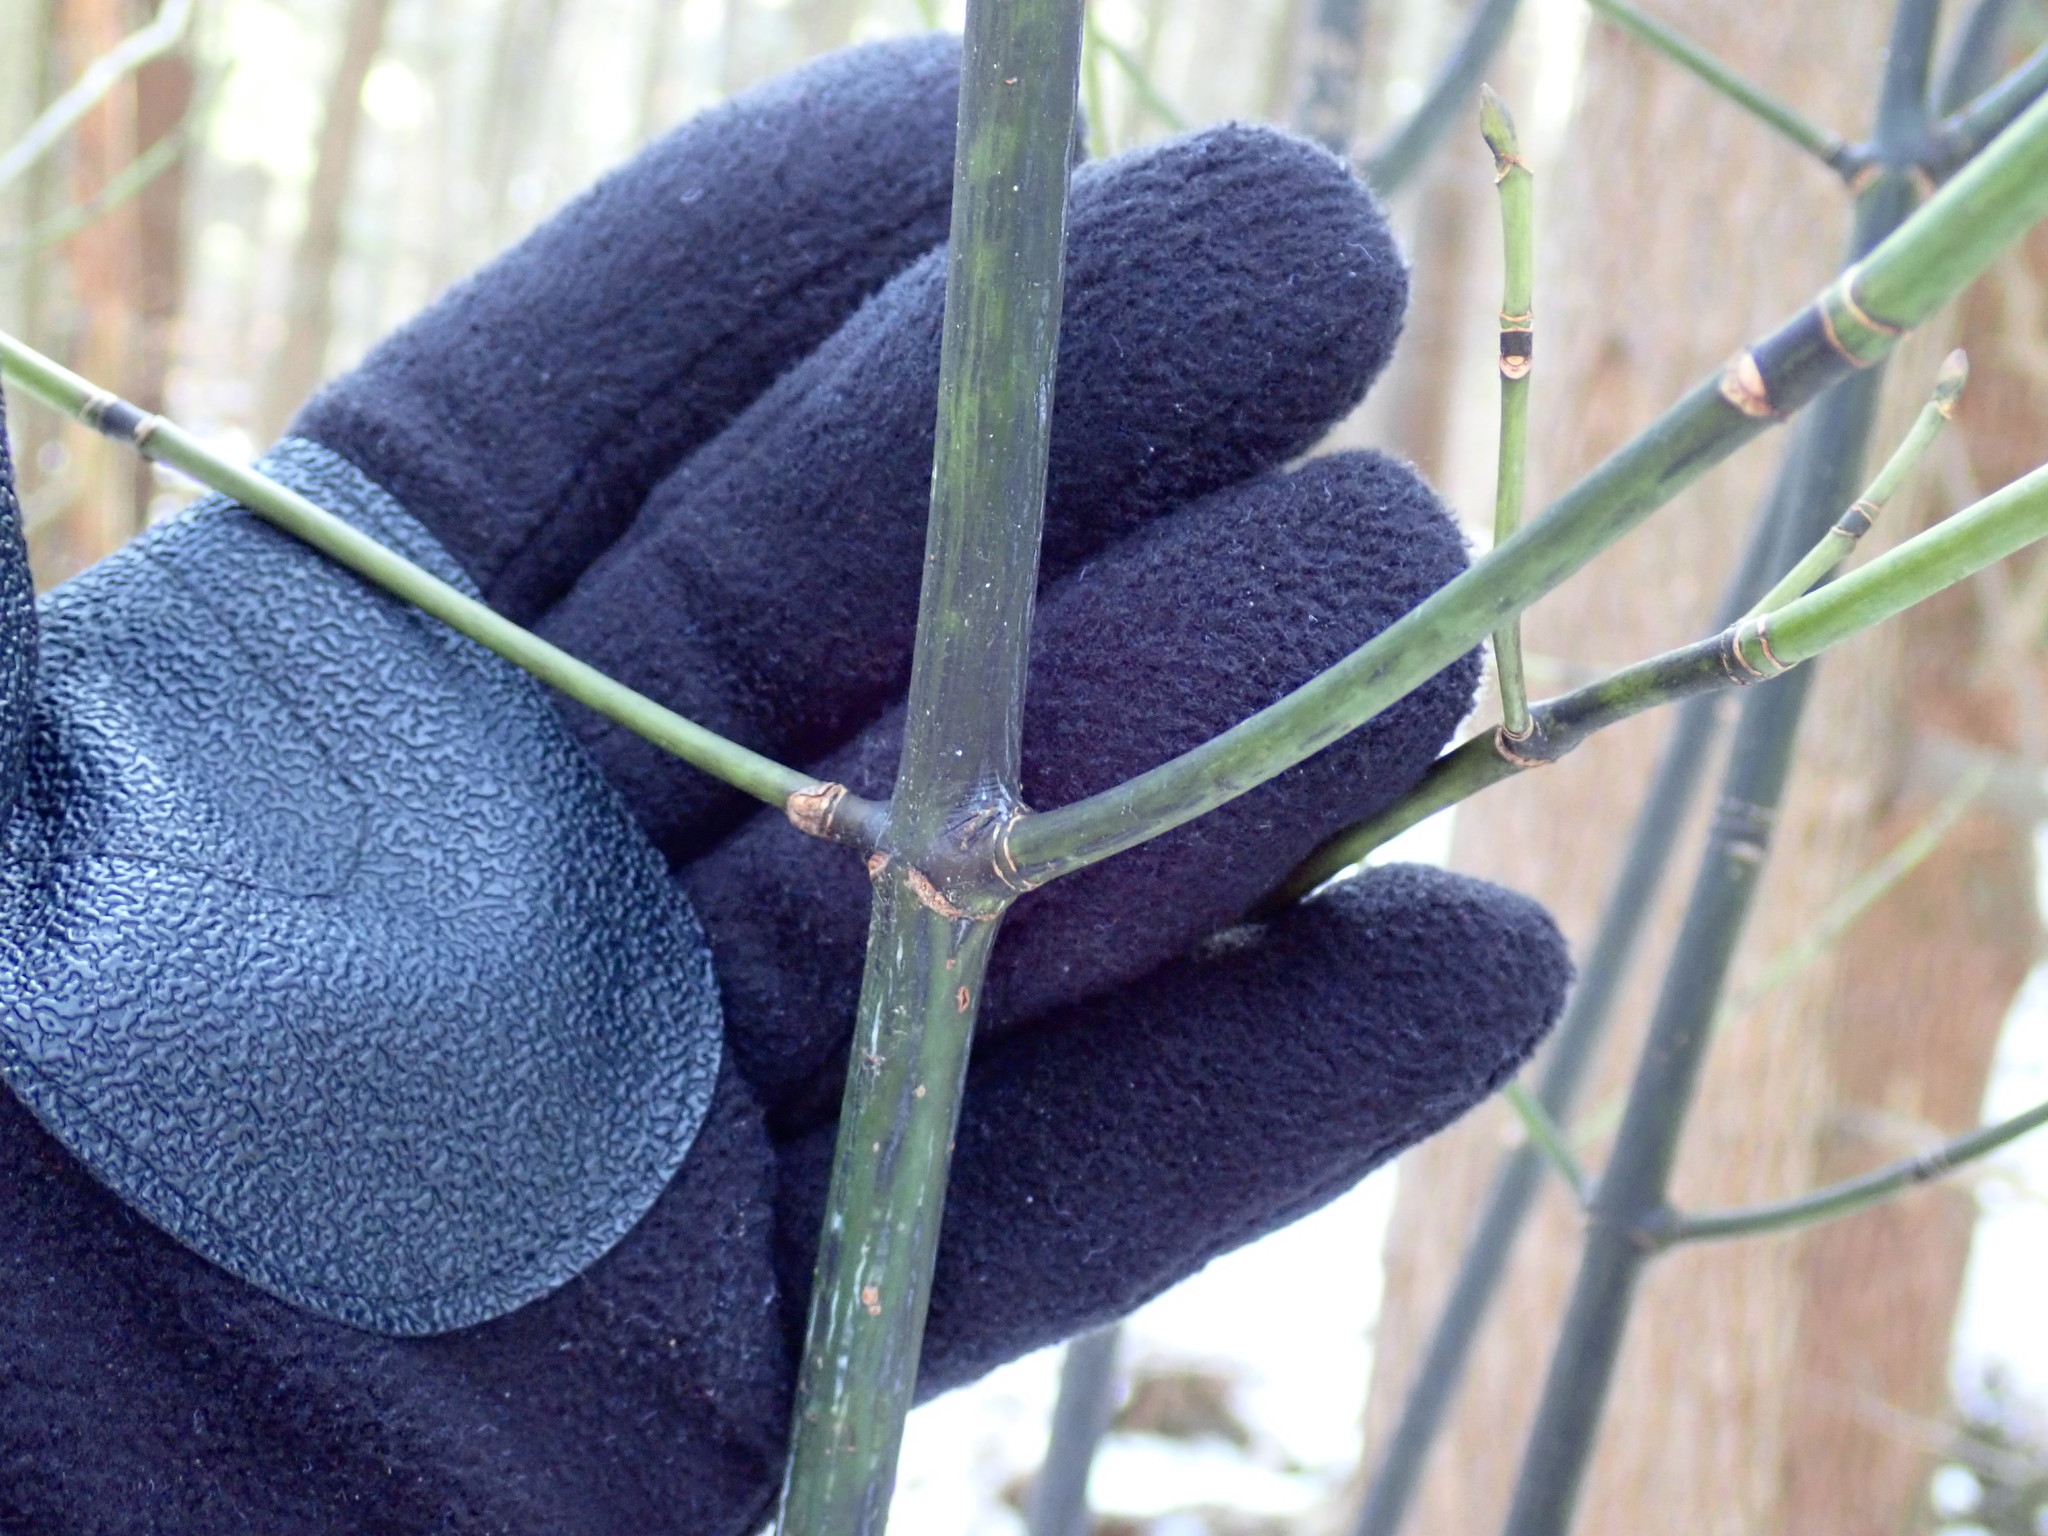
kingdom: Plantae
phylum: Tracheophyta
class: Magnoliopsida
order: Sapindales
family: Sapindaceae
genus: Acer
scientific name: Acer pensylvanicum
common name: Moosewood
